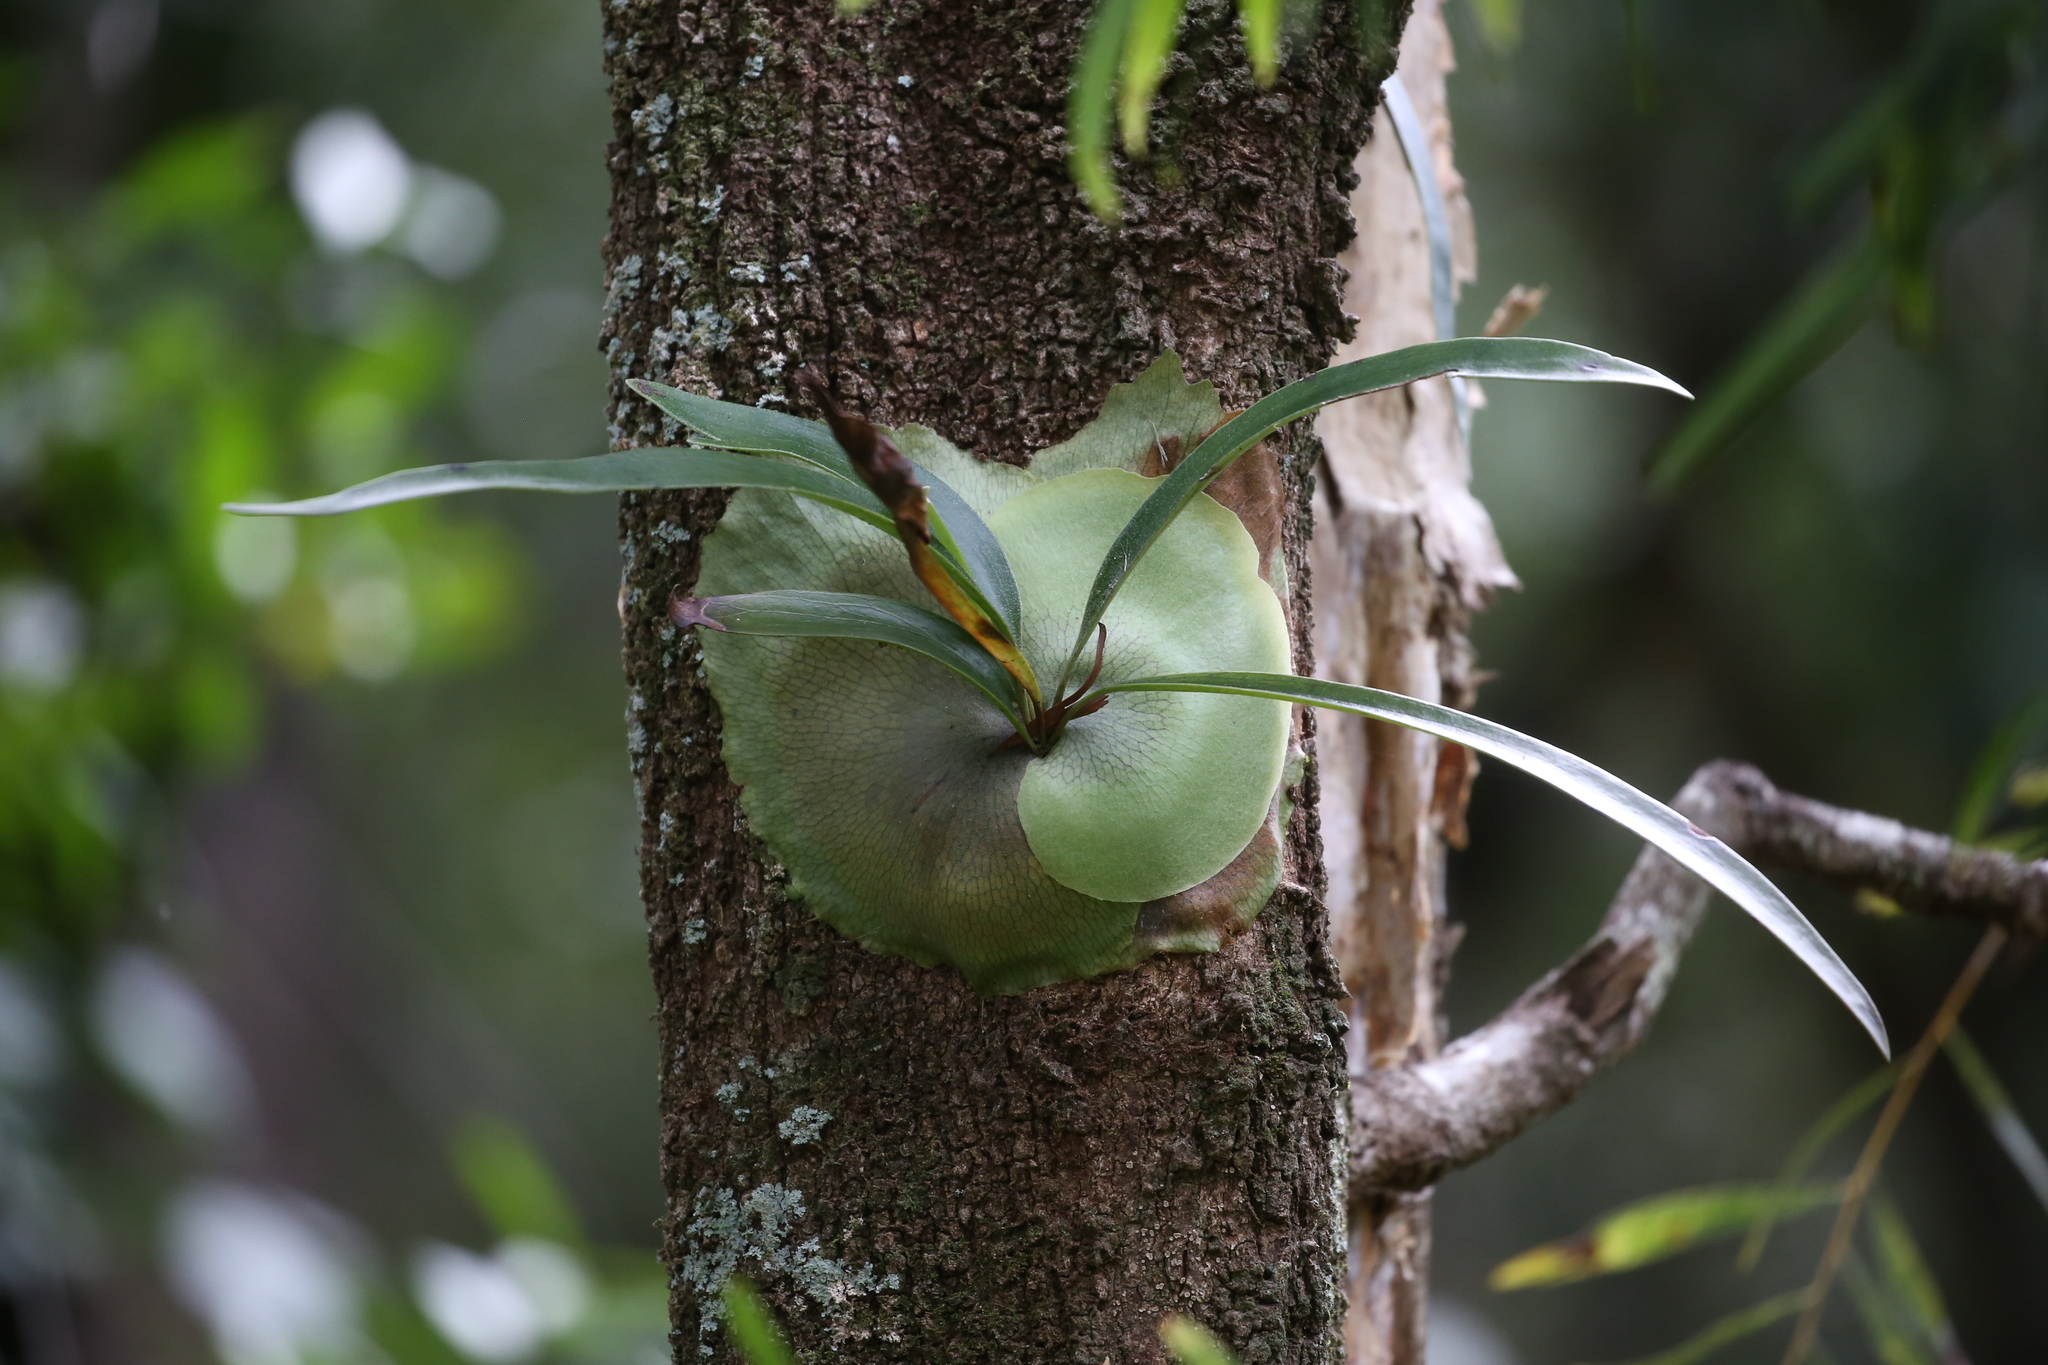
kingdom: Plantae
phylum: Tracheophyta
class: Polypodiopsida
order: Polypodiales
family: Polypodiaceae
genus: Platycerium
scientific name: Platycerium bifurcatum
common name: Elkhorn fern
